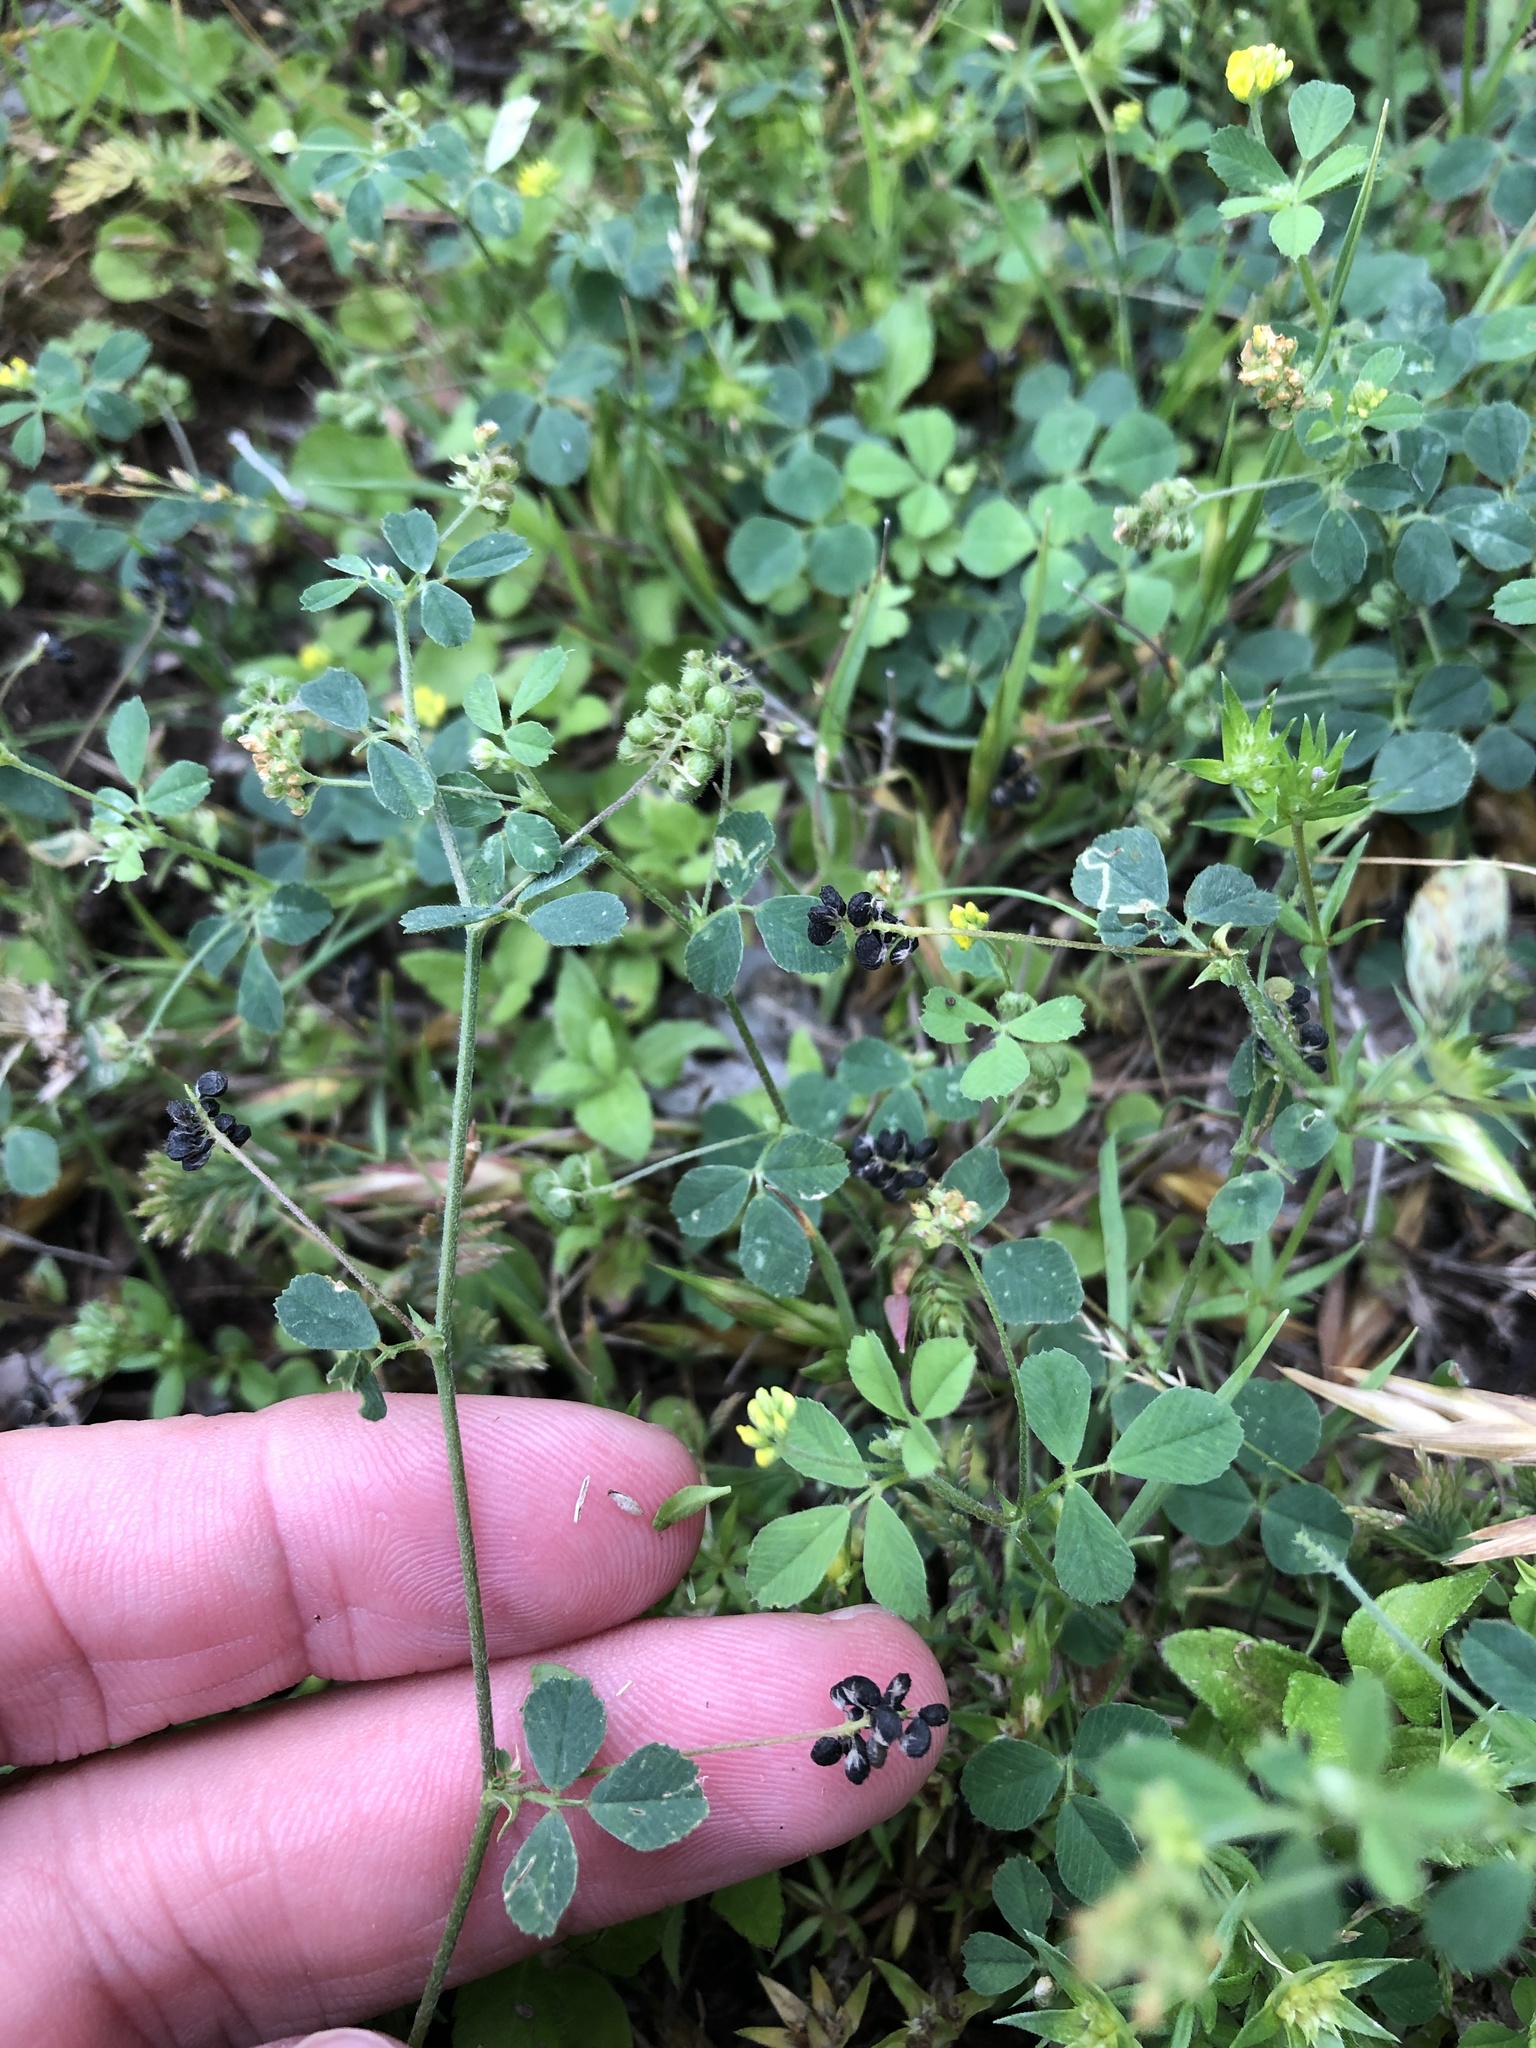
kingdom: Plantae
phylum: Tracheophyta
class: Magnoliopsida
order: Fabales
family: Fabaceae
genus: Medicago
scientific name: Medicago lupulina
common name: Black medick
